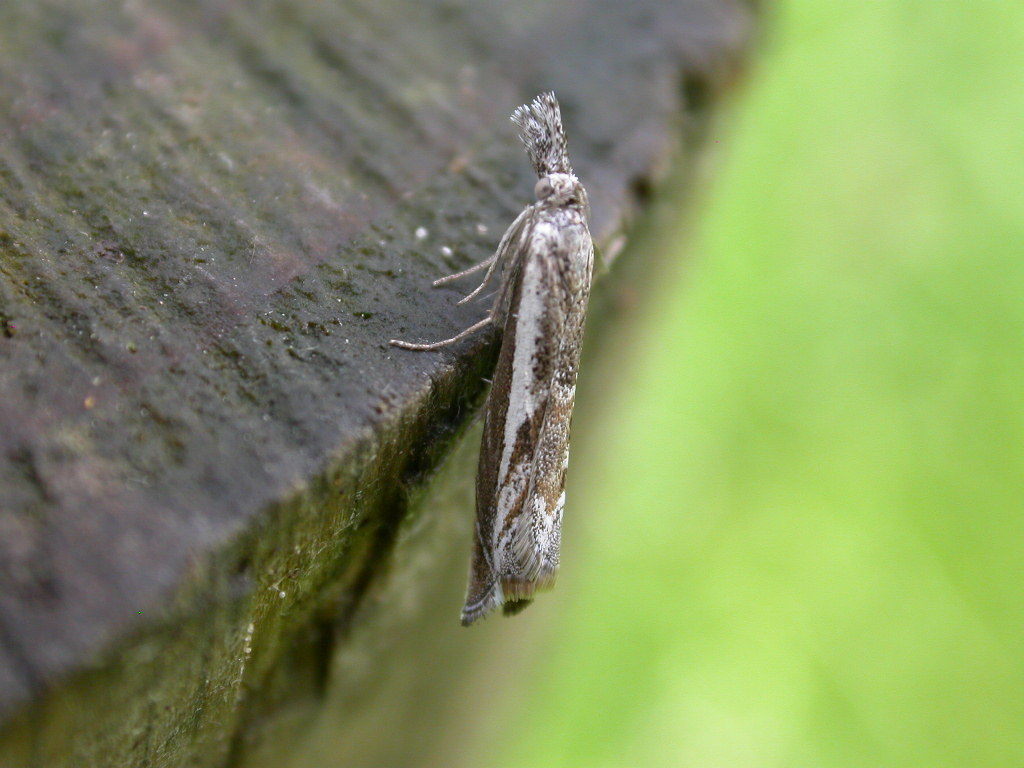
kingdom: Animalia
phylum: Arthropoda
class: Insecta
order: Lepidoptera
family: Crambidae
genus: Platytes
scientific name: Platytes alpinella
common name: Hook-tipped grass-veneer
